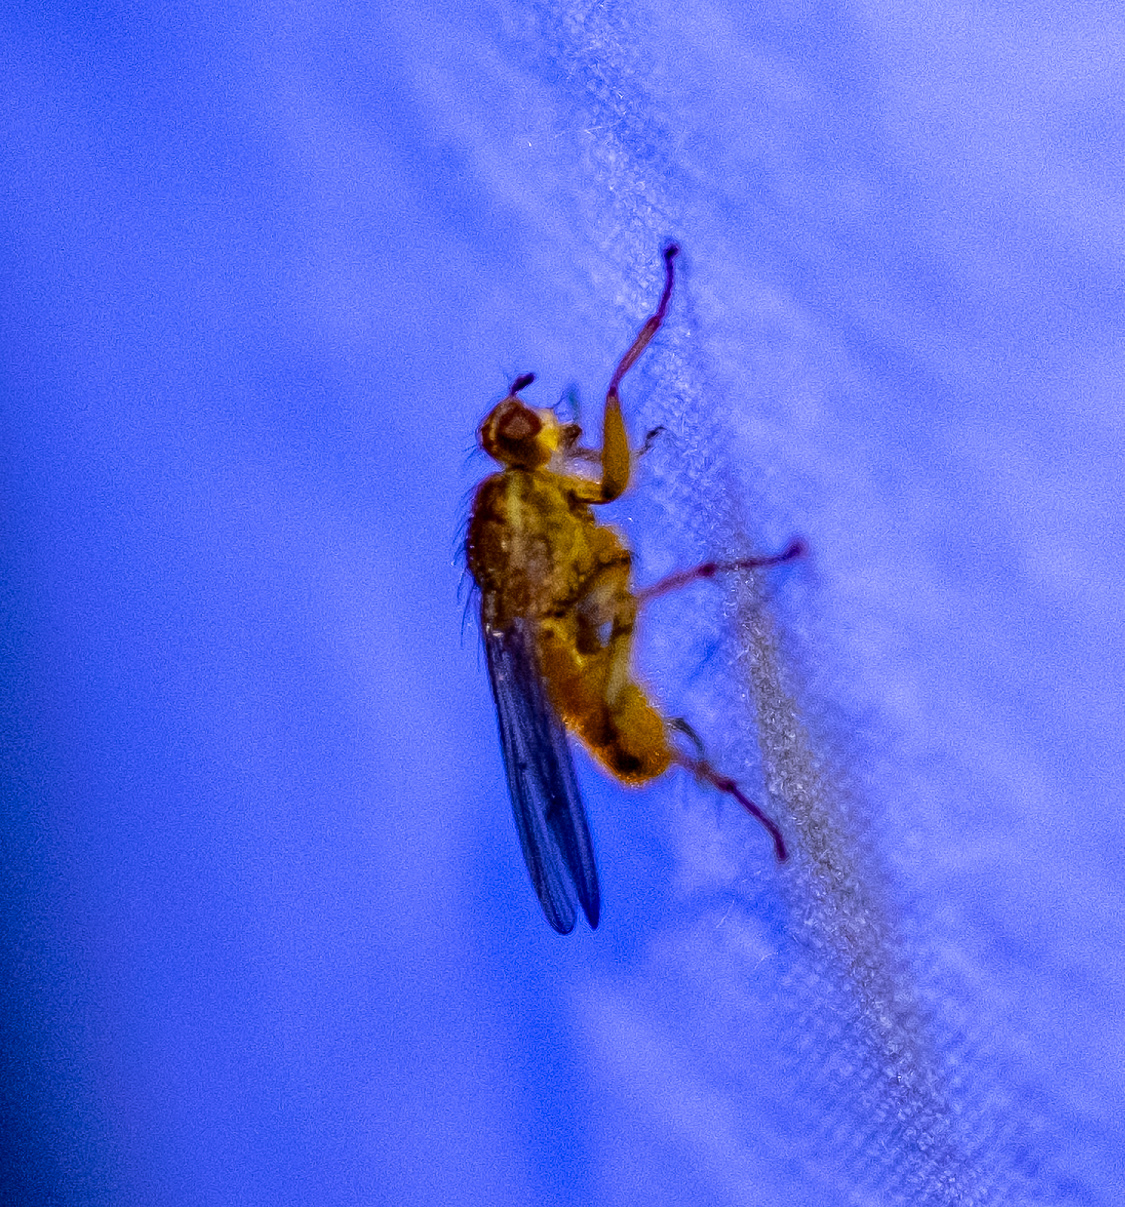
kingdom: Animalia
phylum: Arthropoda
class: Insecta
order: Diptera
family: Scathophagidae
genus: Scathophaga
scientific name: Scathophaga stercoraria
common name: Yellow dung fly
